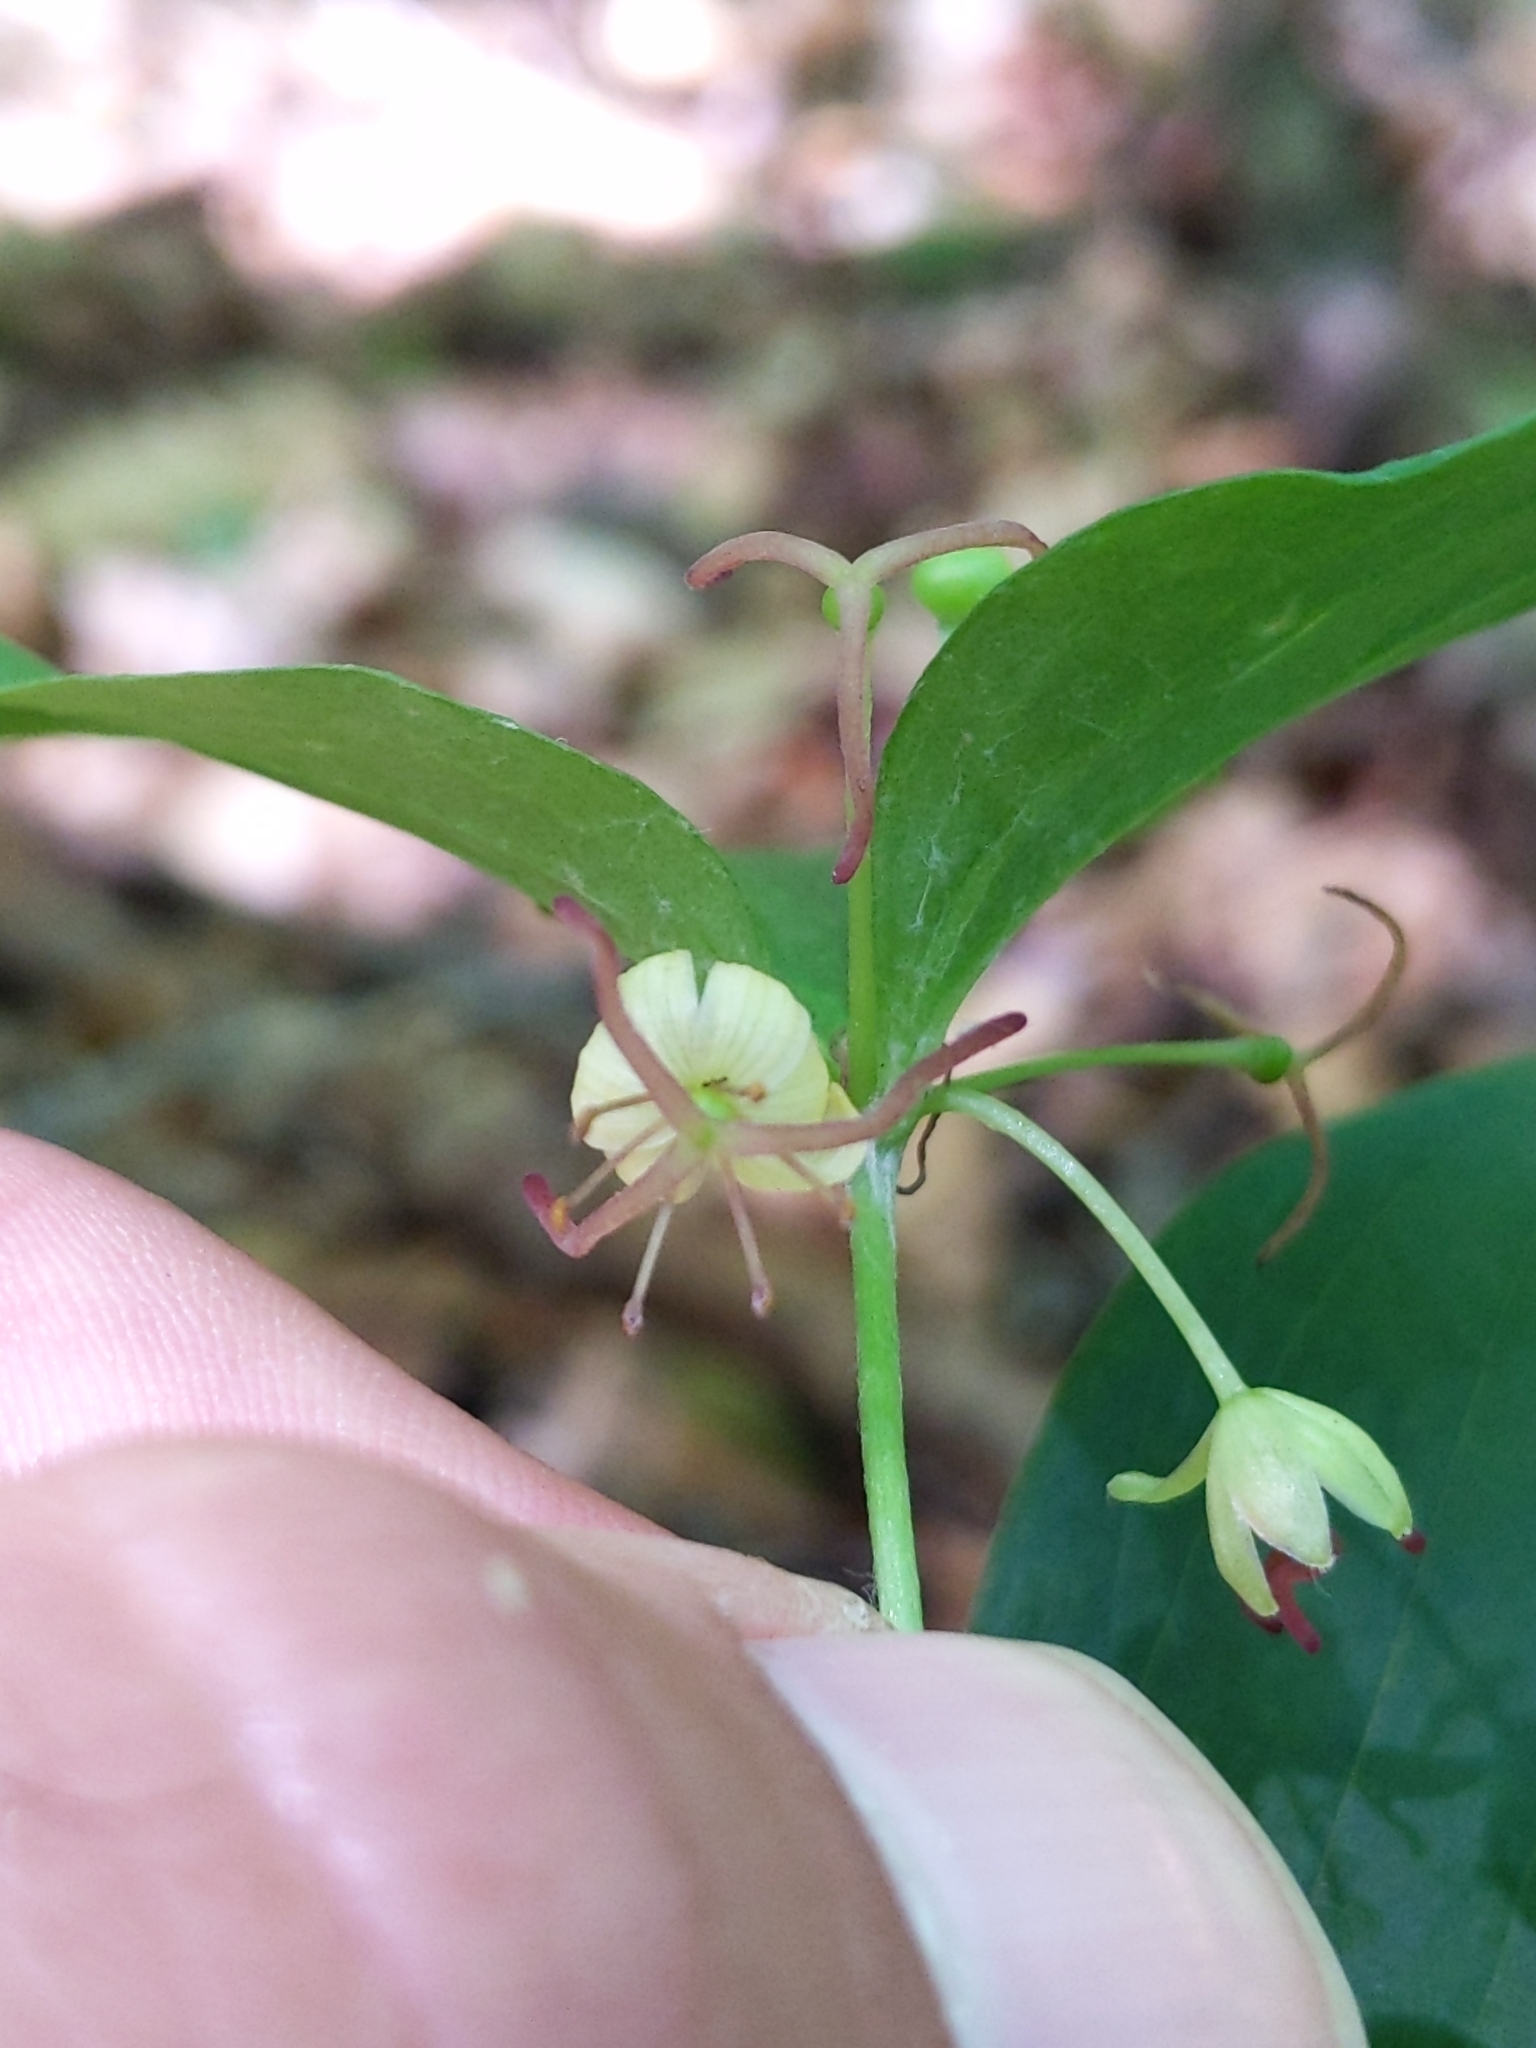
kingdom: Plantae
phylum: Tracheophyta
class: Liliopsida
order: Liliales
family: Liliaceae
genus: Medeola
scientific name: Medeola virginiana
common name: Indian cucumber-root
